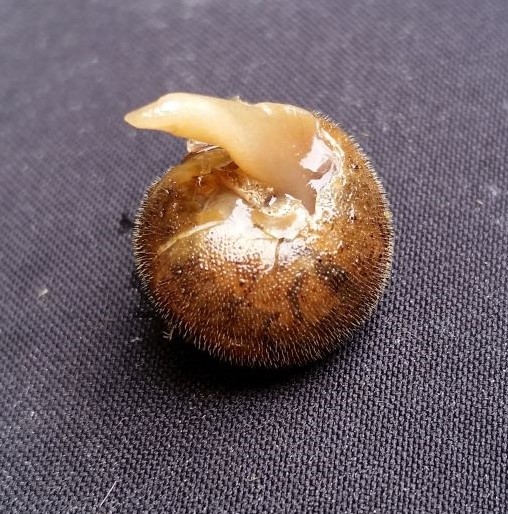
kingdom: Animalia
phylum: Mollusca
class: Gastropoda
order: Stylommatophora
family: Polygyridae
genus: Vespericola
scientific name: Vespericola columbianus
